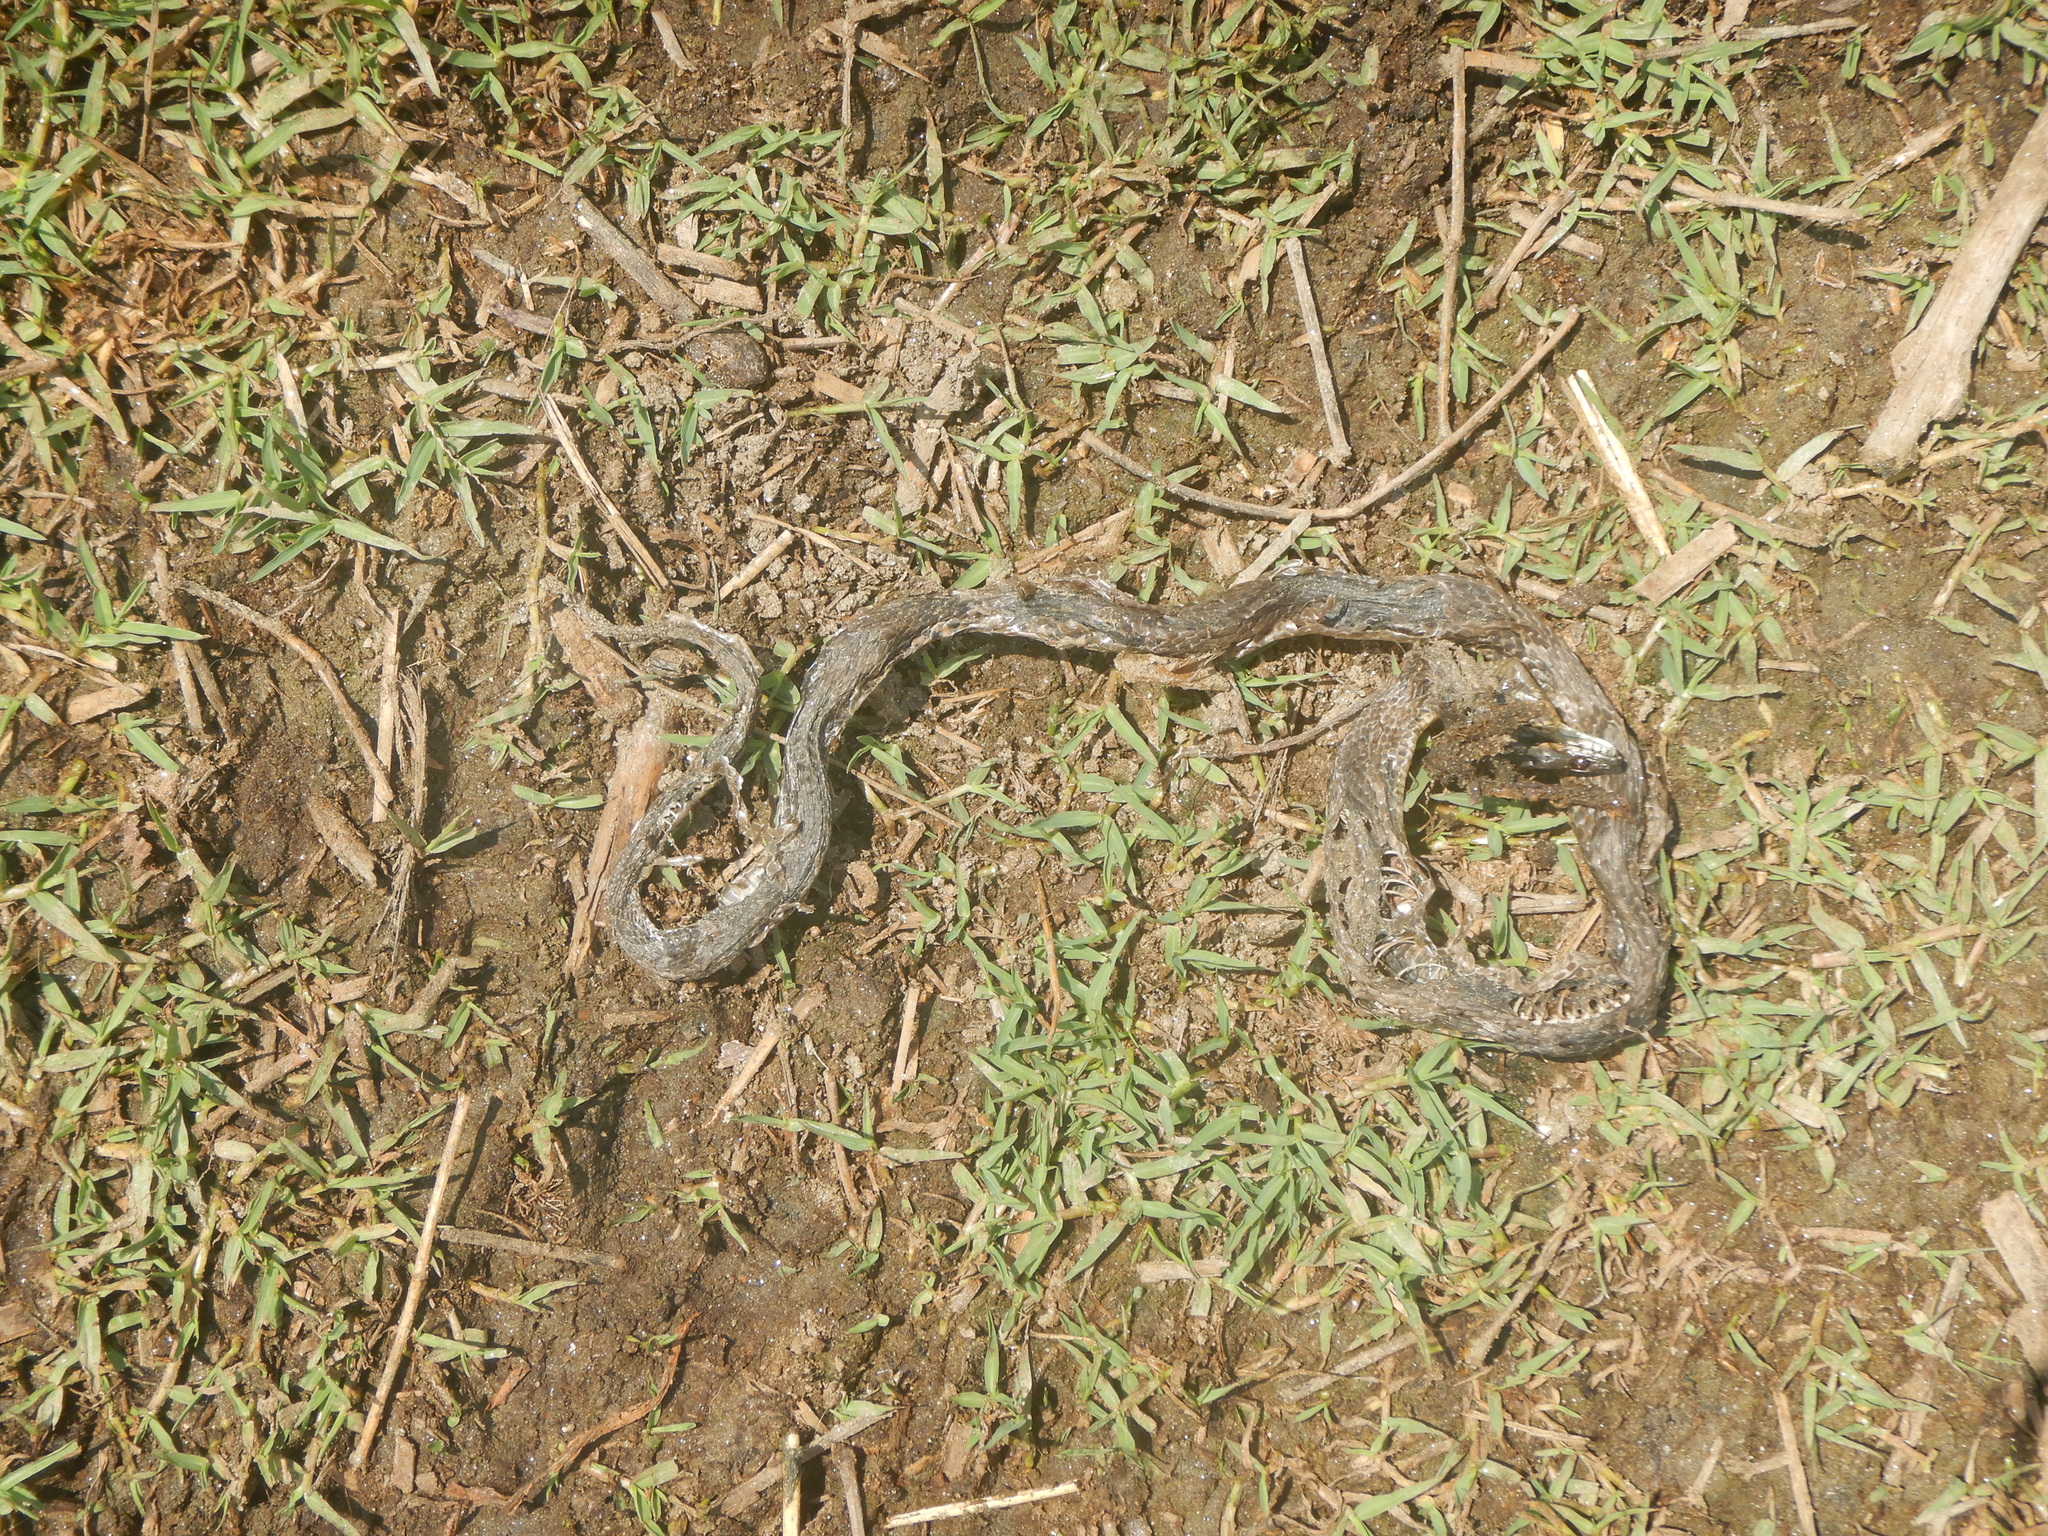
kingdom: Animalia
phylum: Chordata
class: Squamata
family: Colubridae
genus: Natrix
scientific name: Natrix tessellata
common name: Dice snake
